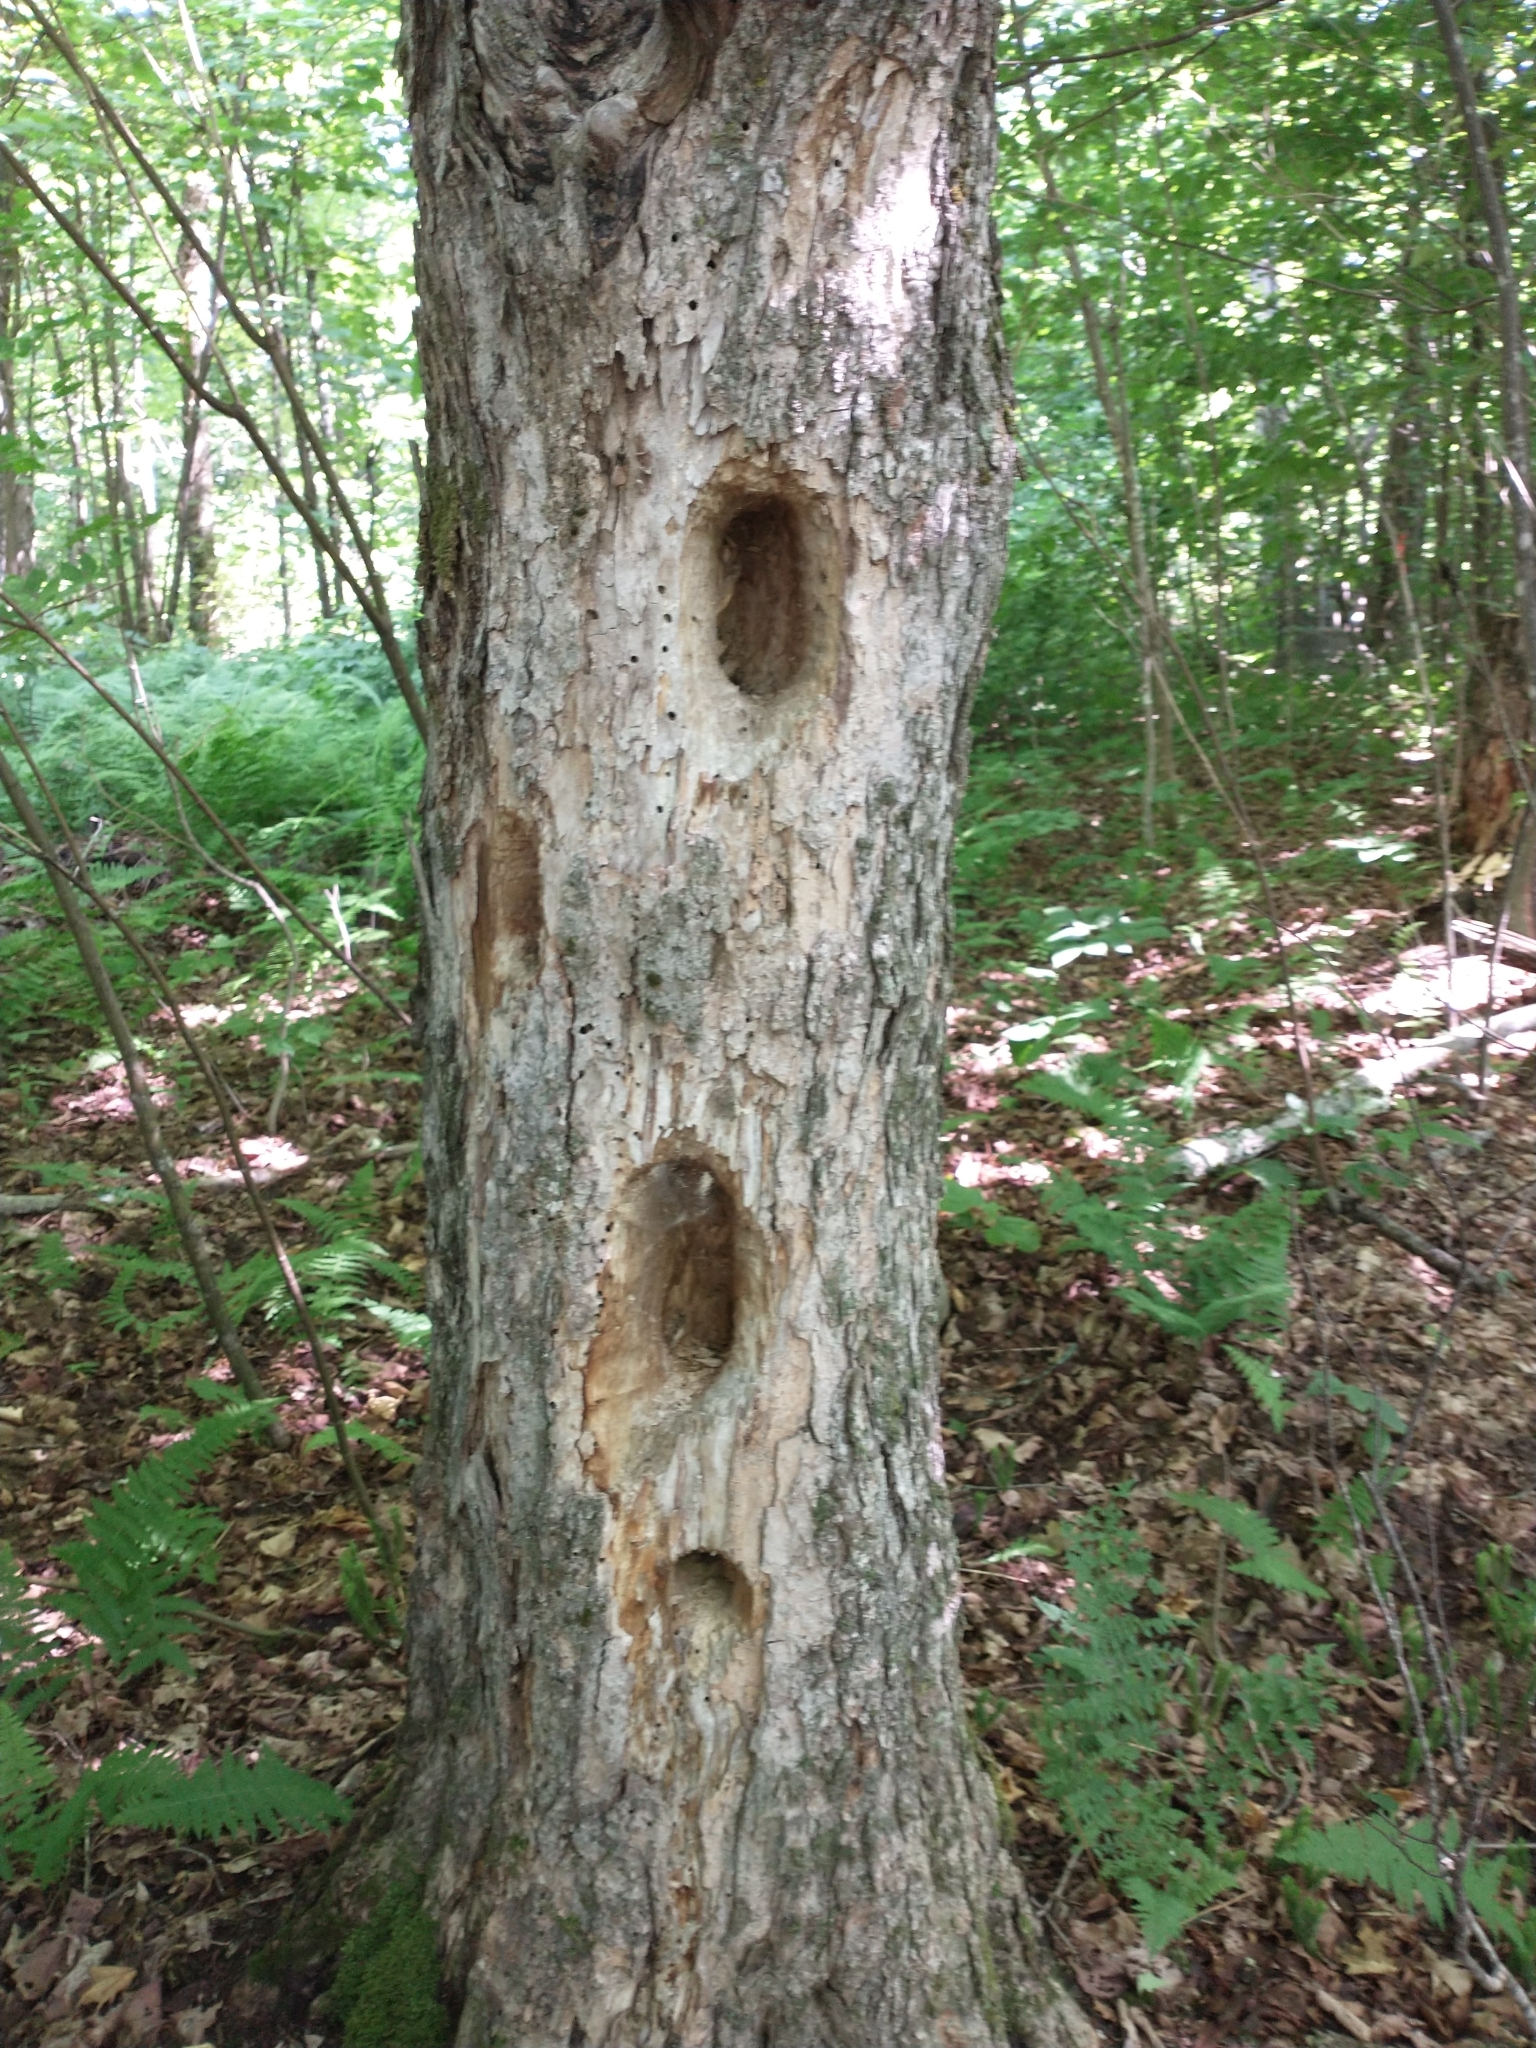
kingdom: Animalia
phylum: Chordata
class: Aves
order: Piciformes
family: Picidae
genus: Dryocopus
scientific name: Dryocopus pileatus
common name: Pileated woodpecker
